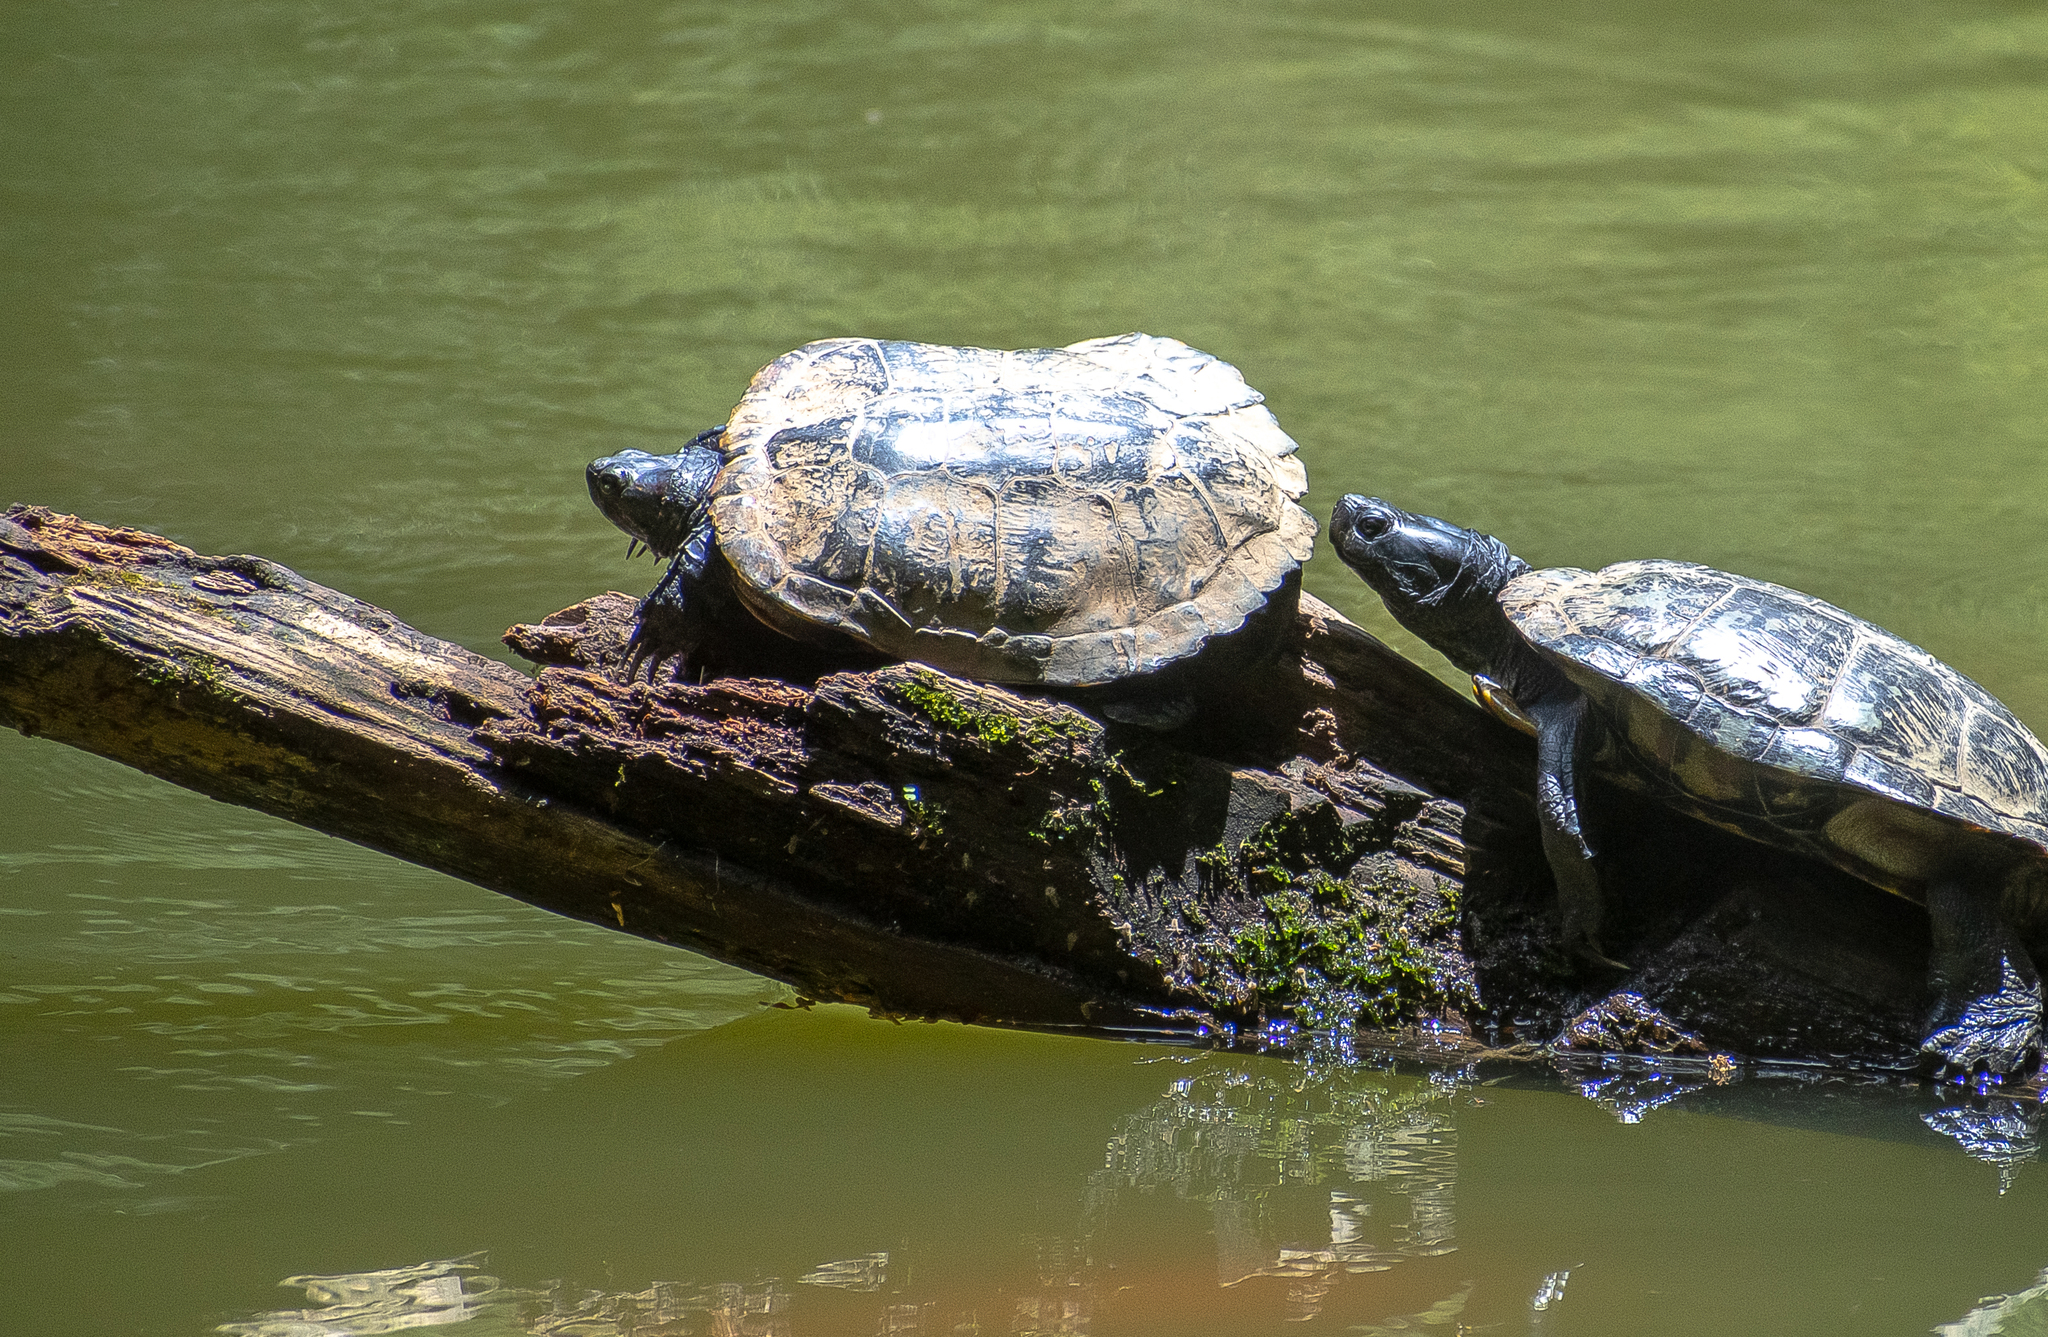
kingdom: Animalia
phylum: Chordata
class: Testudines
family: Emydidae
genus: Trachemys
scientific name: Trachemys scripta
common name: Slider
